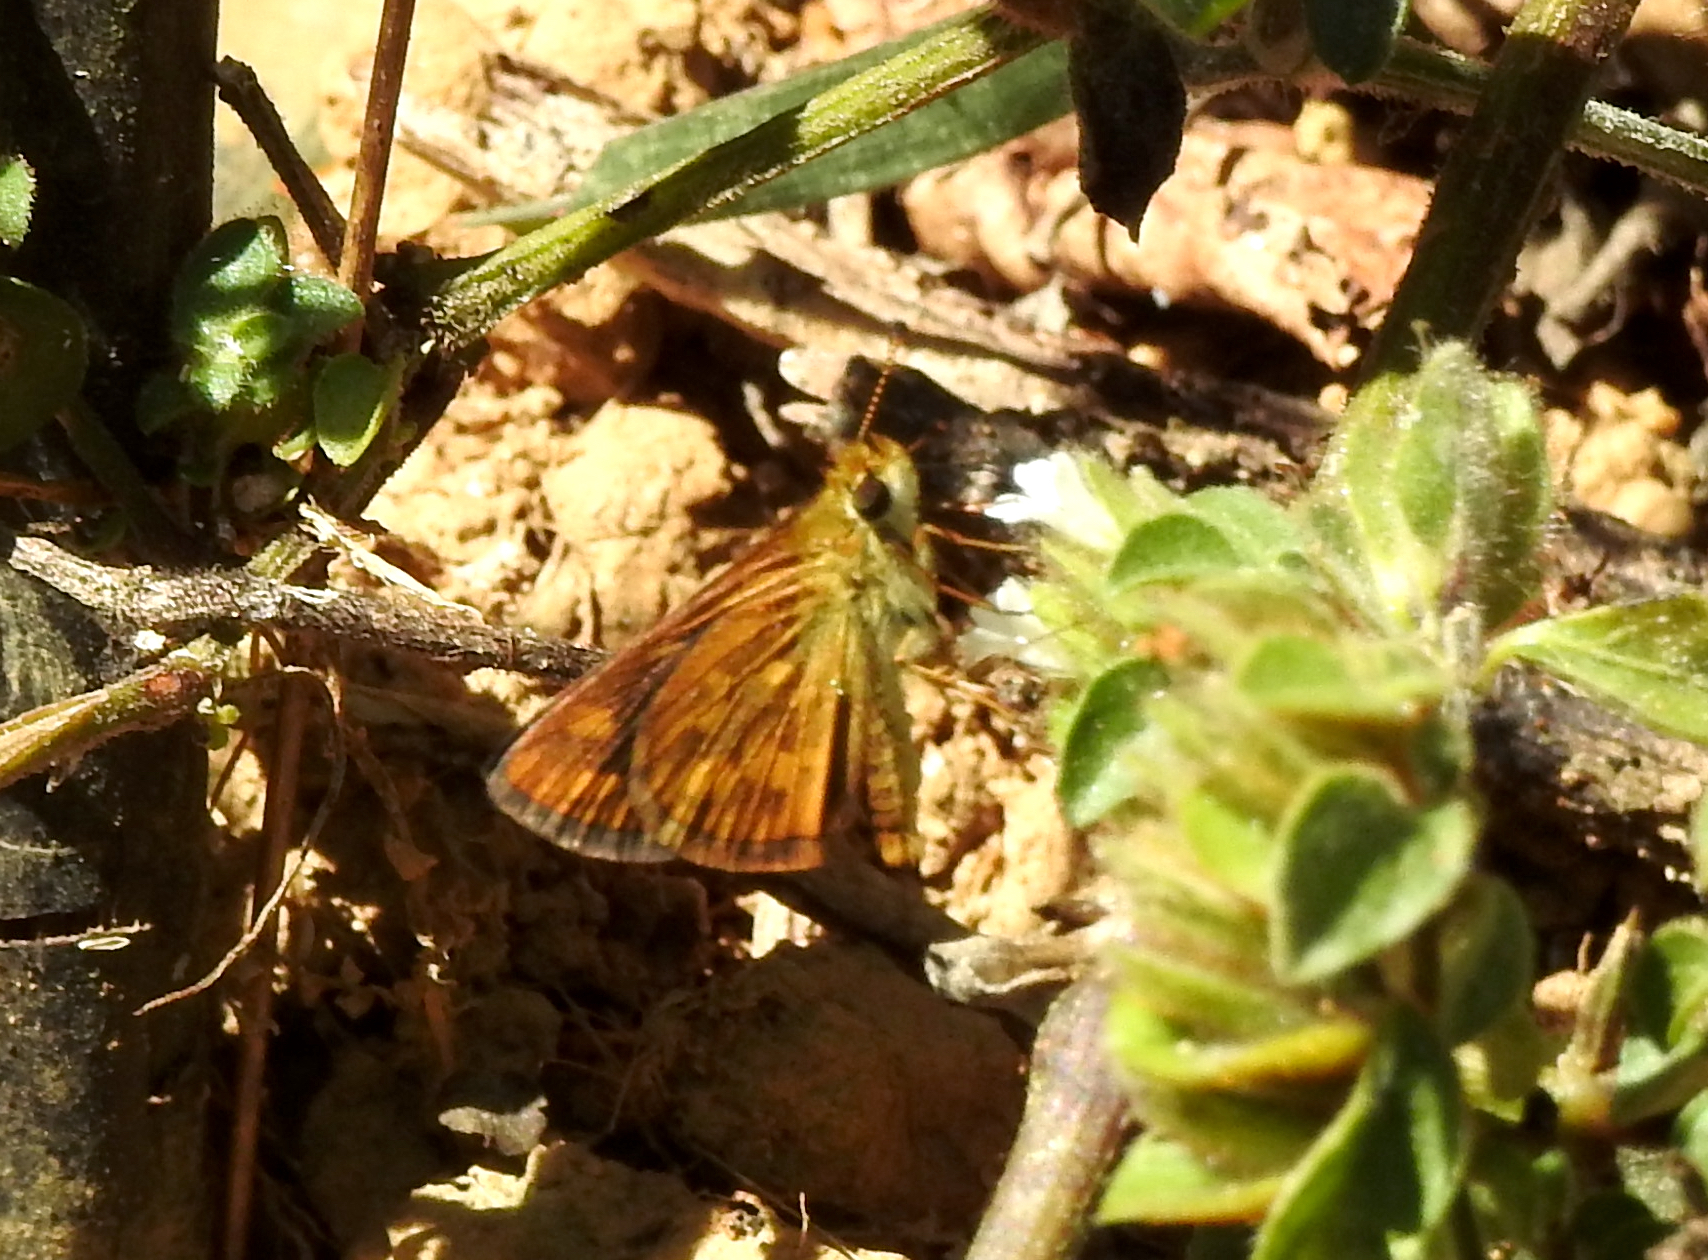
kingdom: Animalia
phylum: Arthropoda
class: Insecta
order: Lepidoptera
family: Hesperiidae
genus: Taractrocera
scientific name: Taractrocera ceramas
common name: Tamil grass dart
